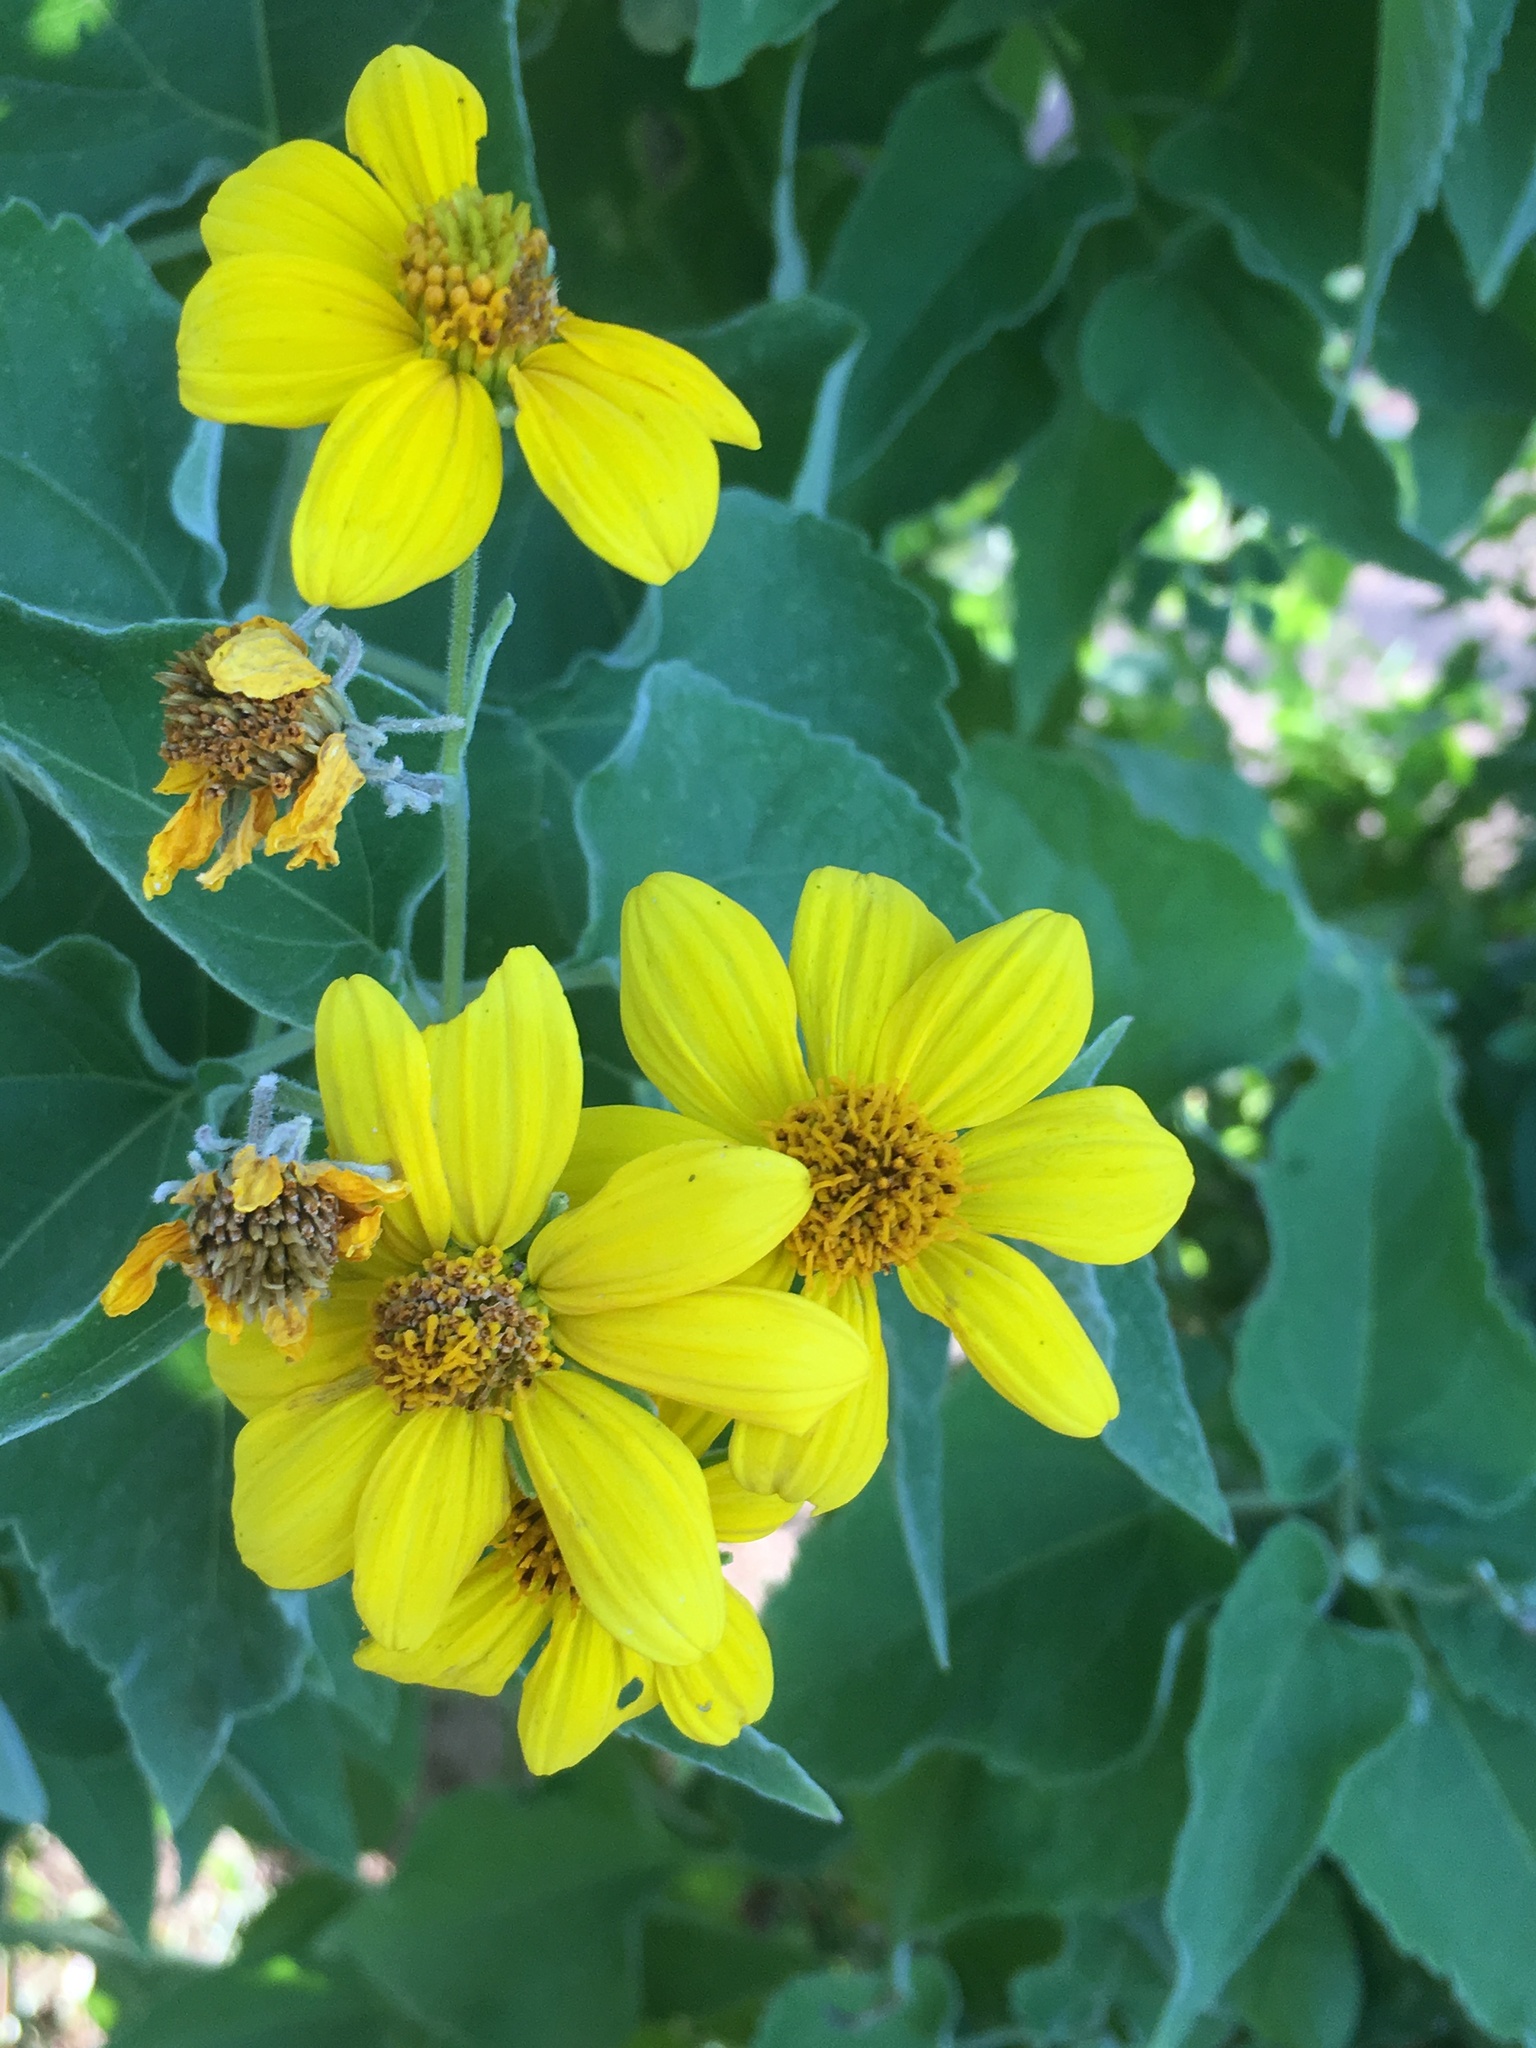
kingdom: Plantae
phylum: Tracheophyta
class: Magnoliopsida
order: Asterales
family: Asteraceae
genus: Bahiopsis
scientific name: Bahiopsis tomentosa
